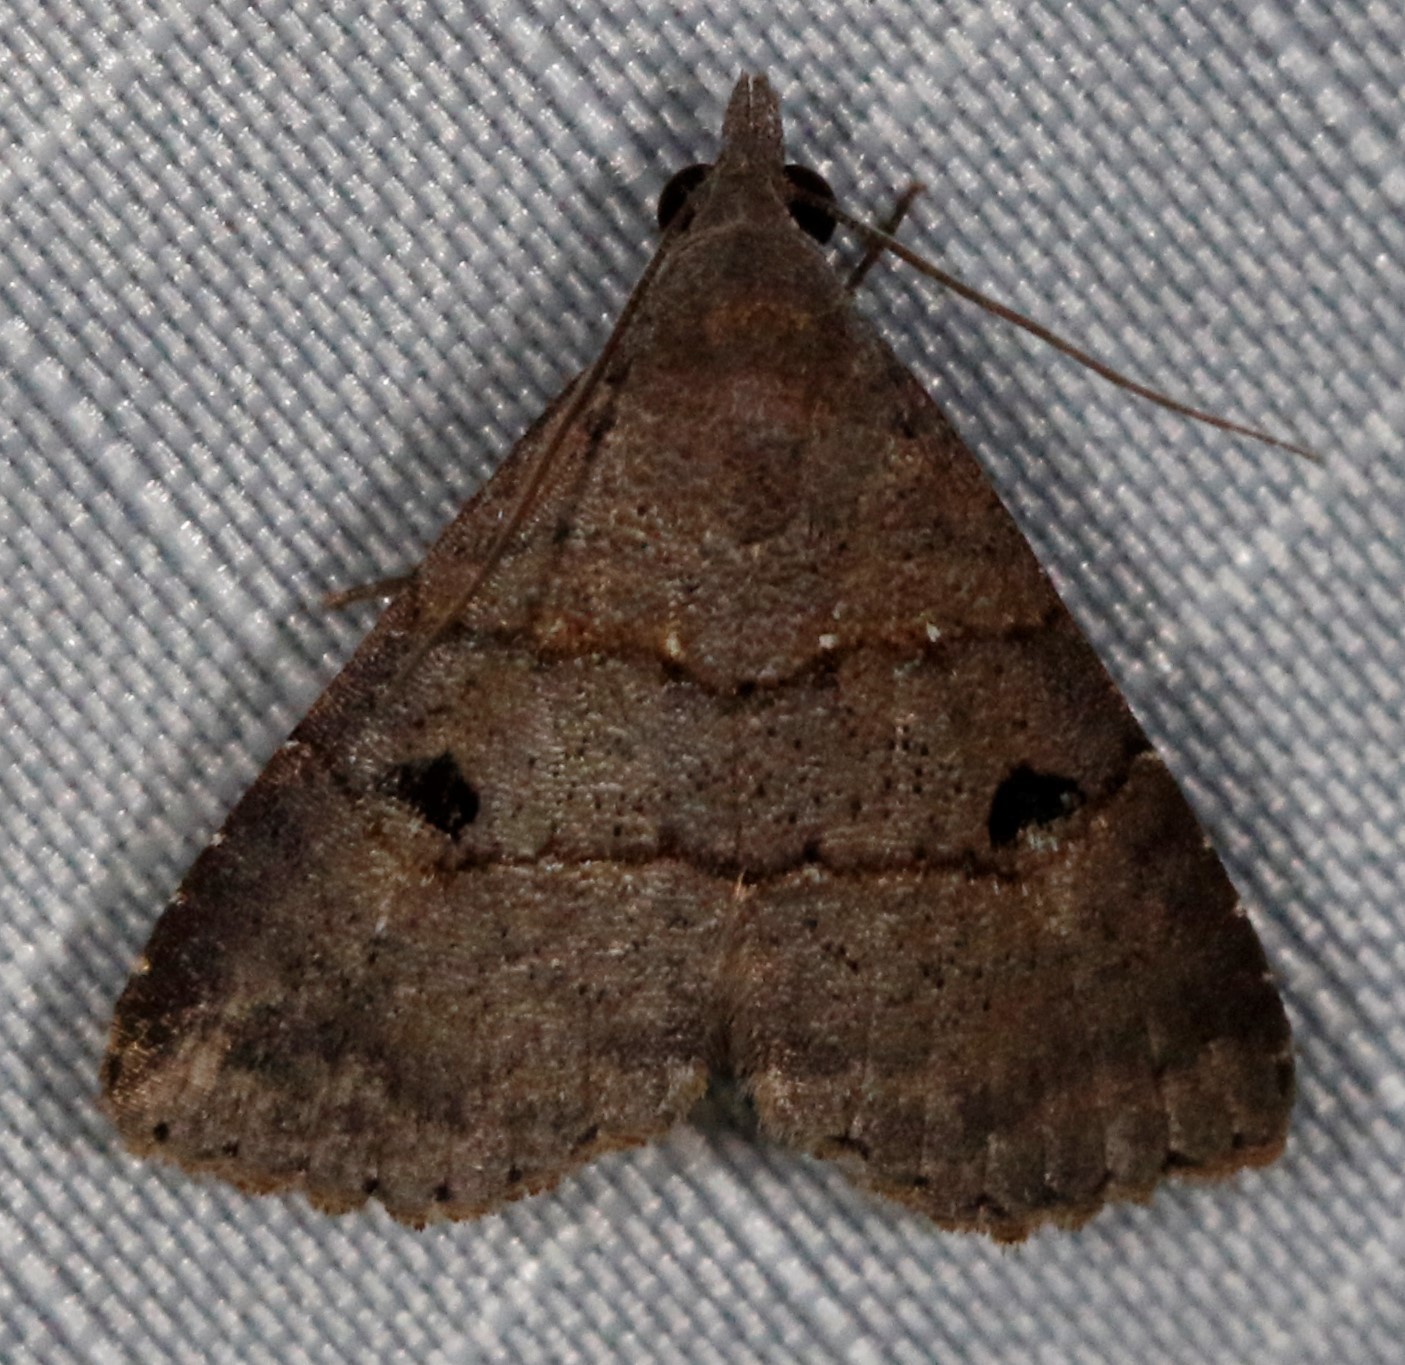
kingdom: Animalia
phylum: Arthropoda
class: Insecta
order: Lepidoptera
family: Noctuidae
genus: Hormoschista
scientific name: Hormoschista latipalpis
